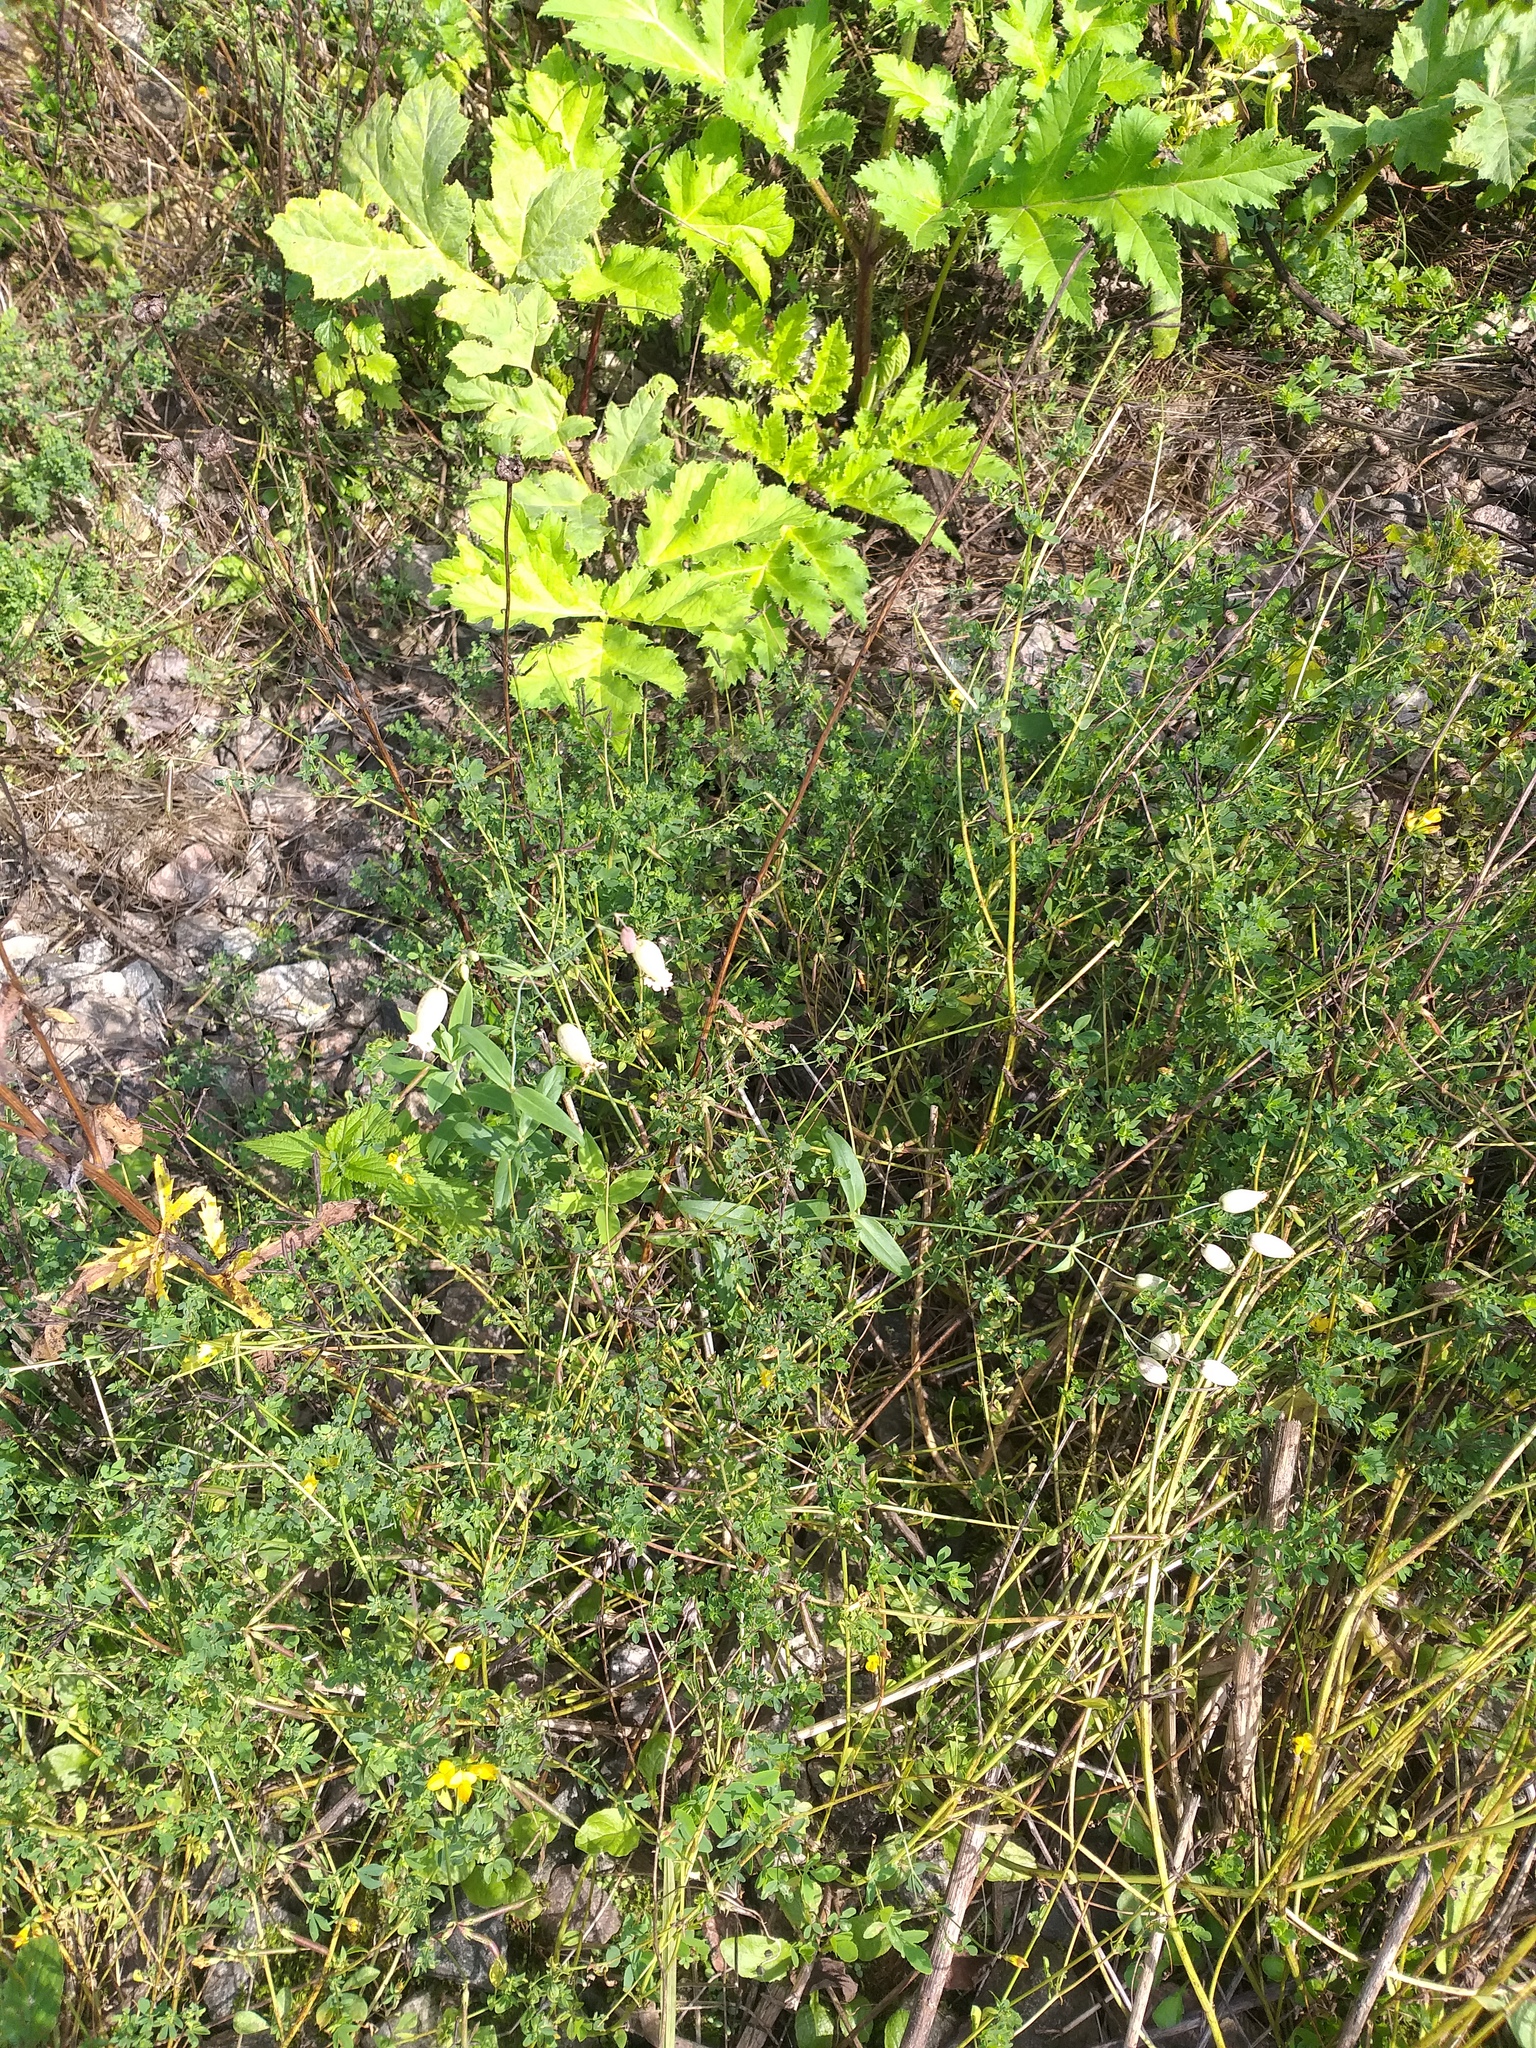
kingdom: Plantae
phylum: Tracheophyta
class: Magnoliopsida
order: Caryophyllales
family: Caryophyllaceae
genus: Silene
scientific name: Silene vulgaris
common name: Bladder campion
